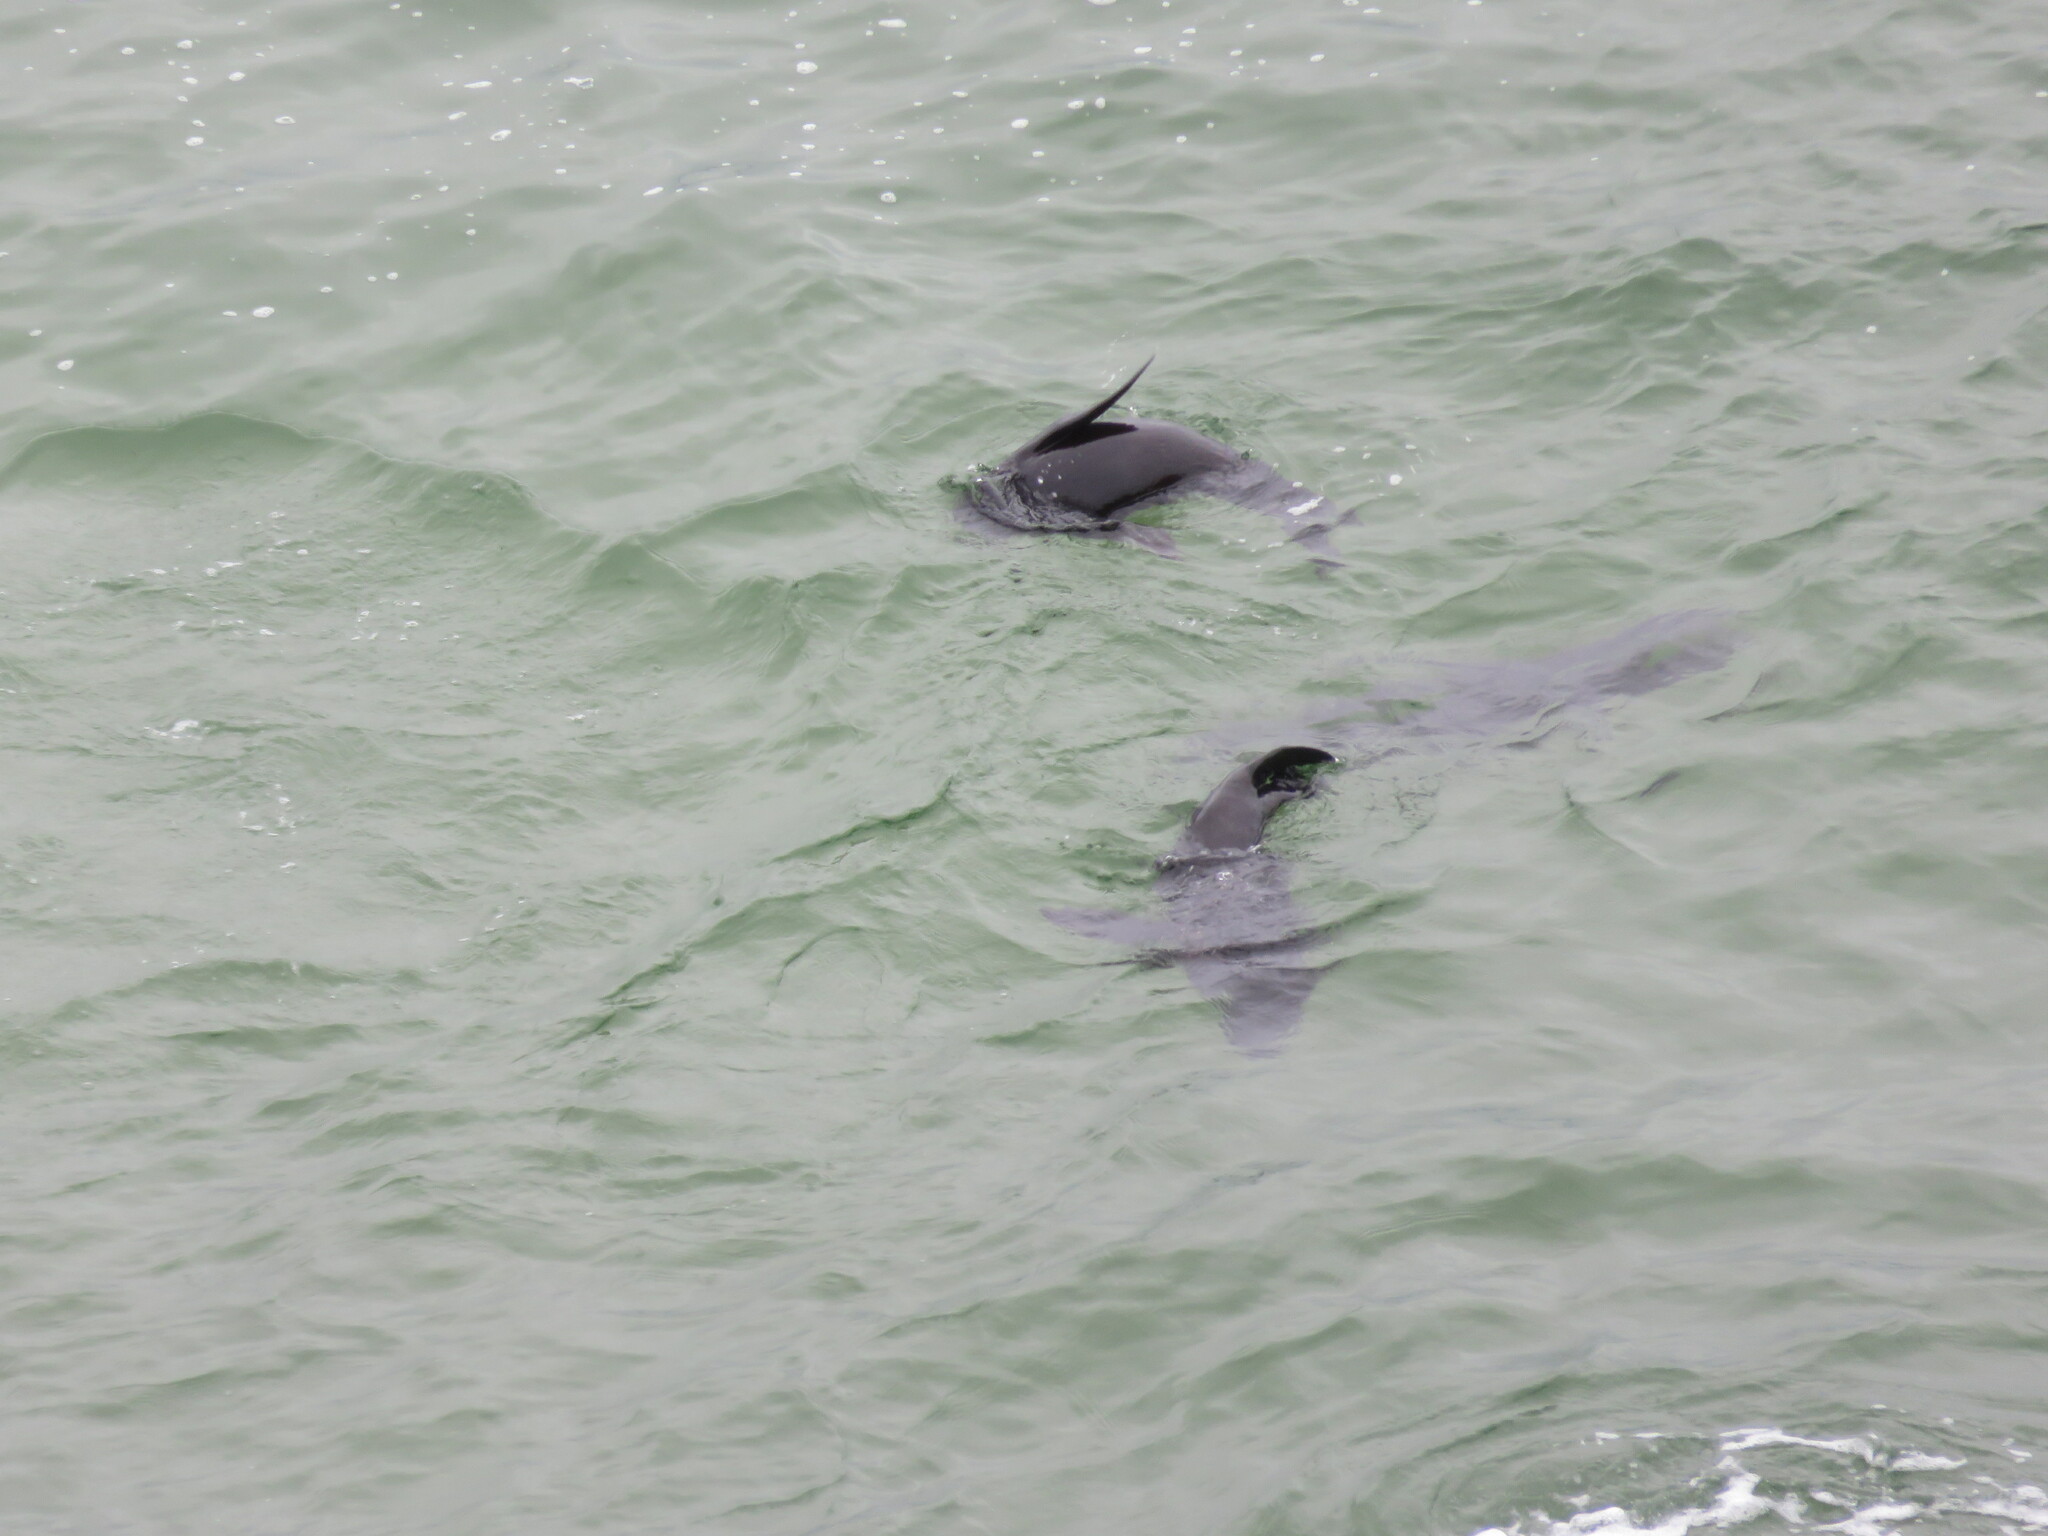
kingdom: Animalia
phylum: Chordata
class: Mammalia
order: Carnivora
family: Otariidae
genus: Arctocephalus
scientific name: Arctocephalus pusillus
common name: Brown fur seal
